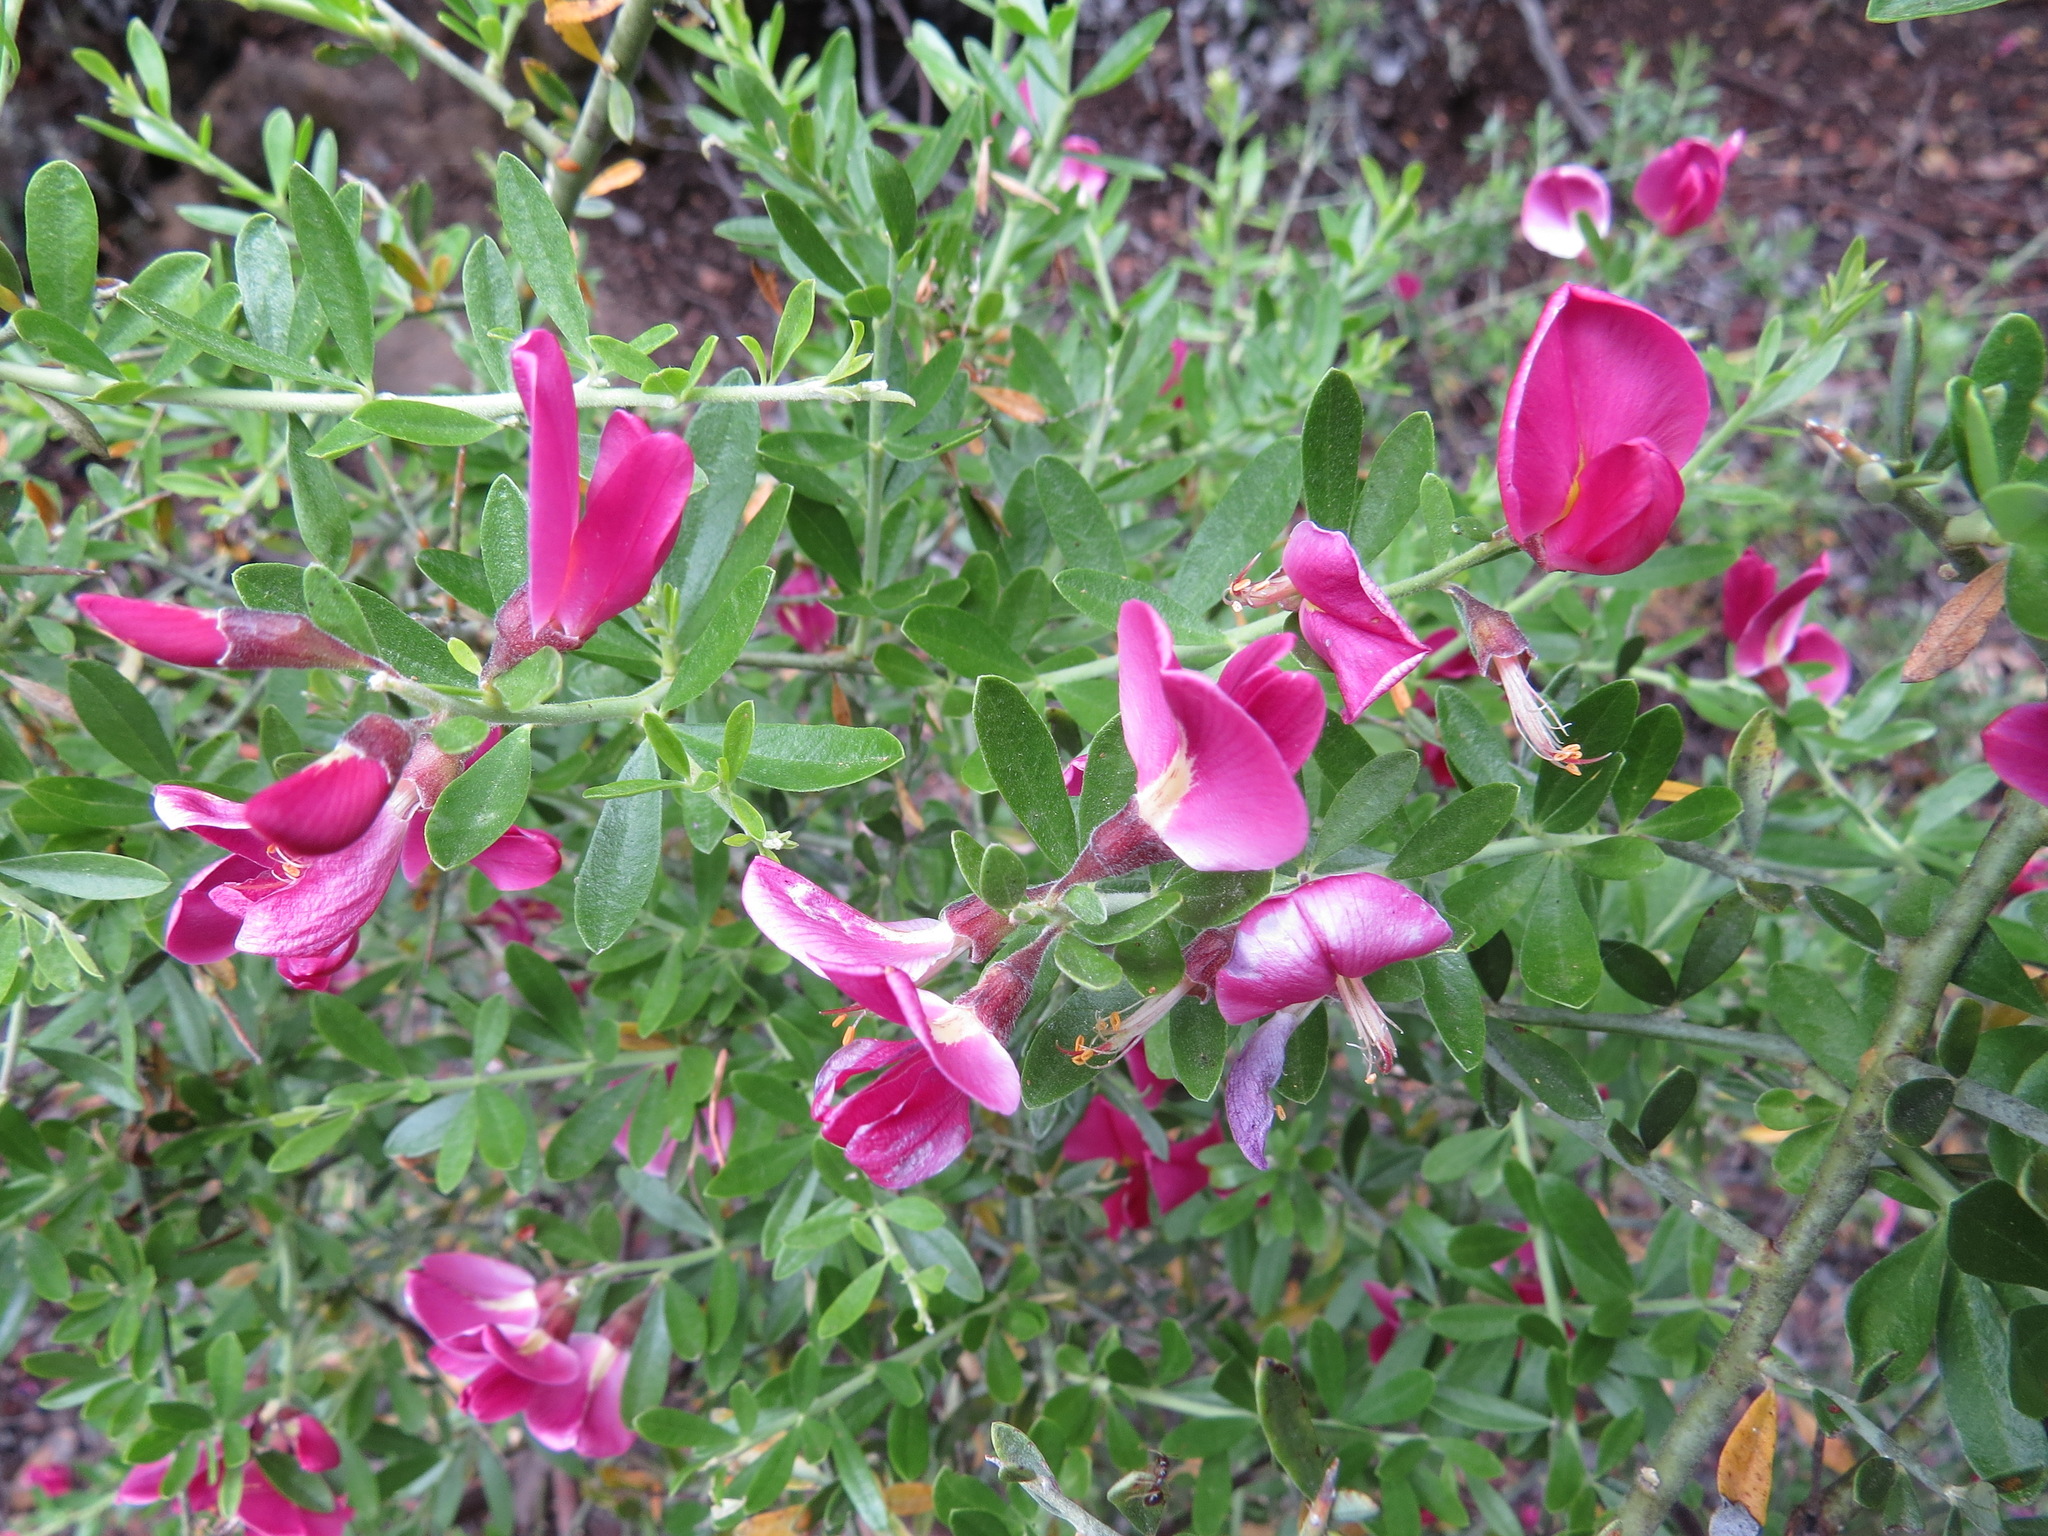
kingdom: Plantae
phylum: Tracheophyta
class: Magnoliopsida
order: Fabales
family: Fabaceae
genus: Pickeringia
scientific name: Pickeringia montana
